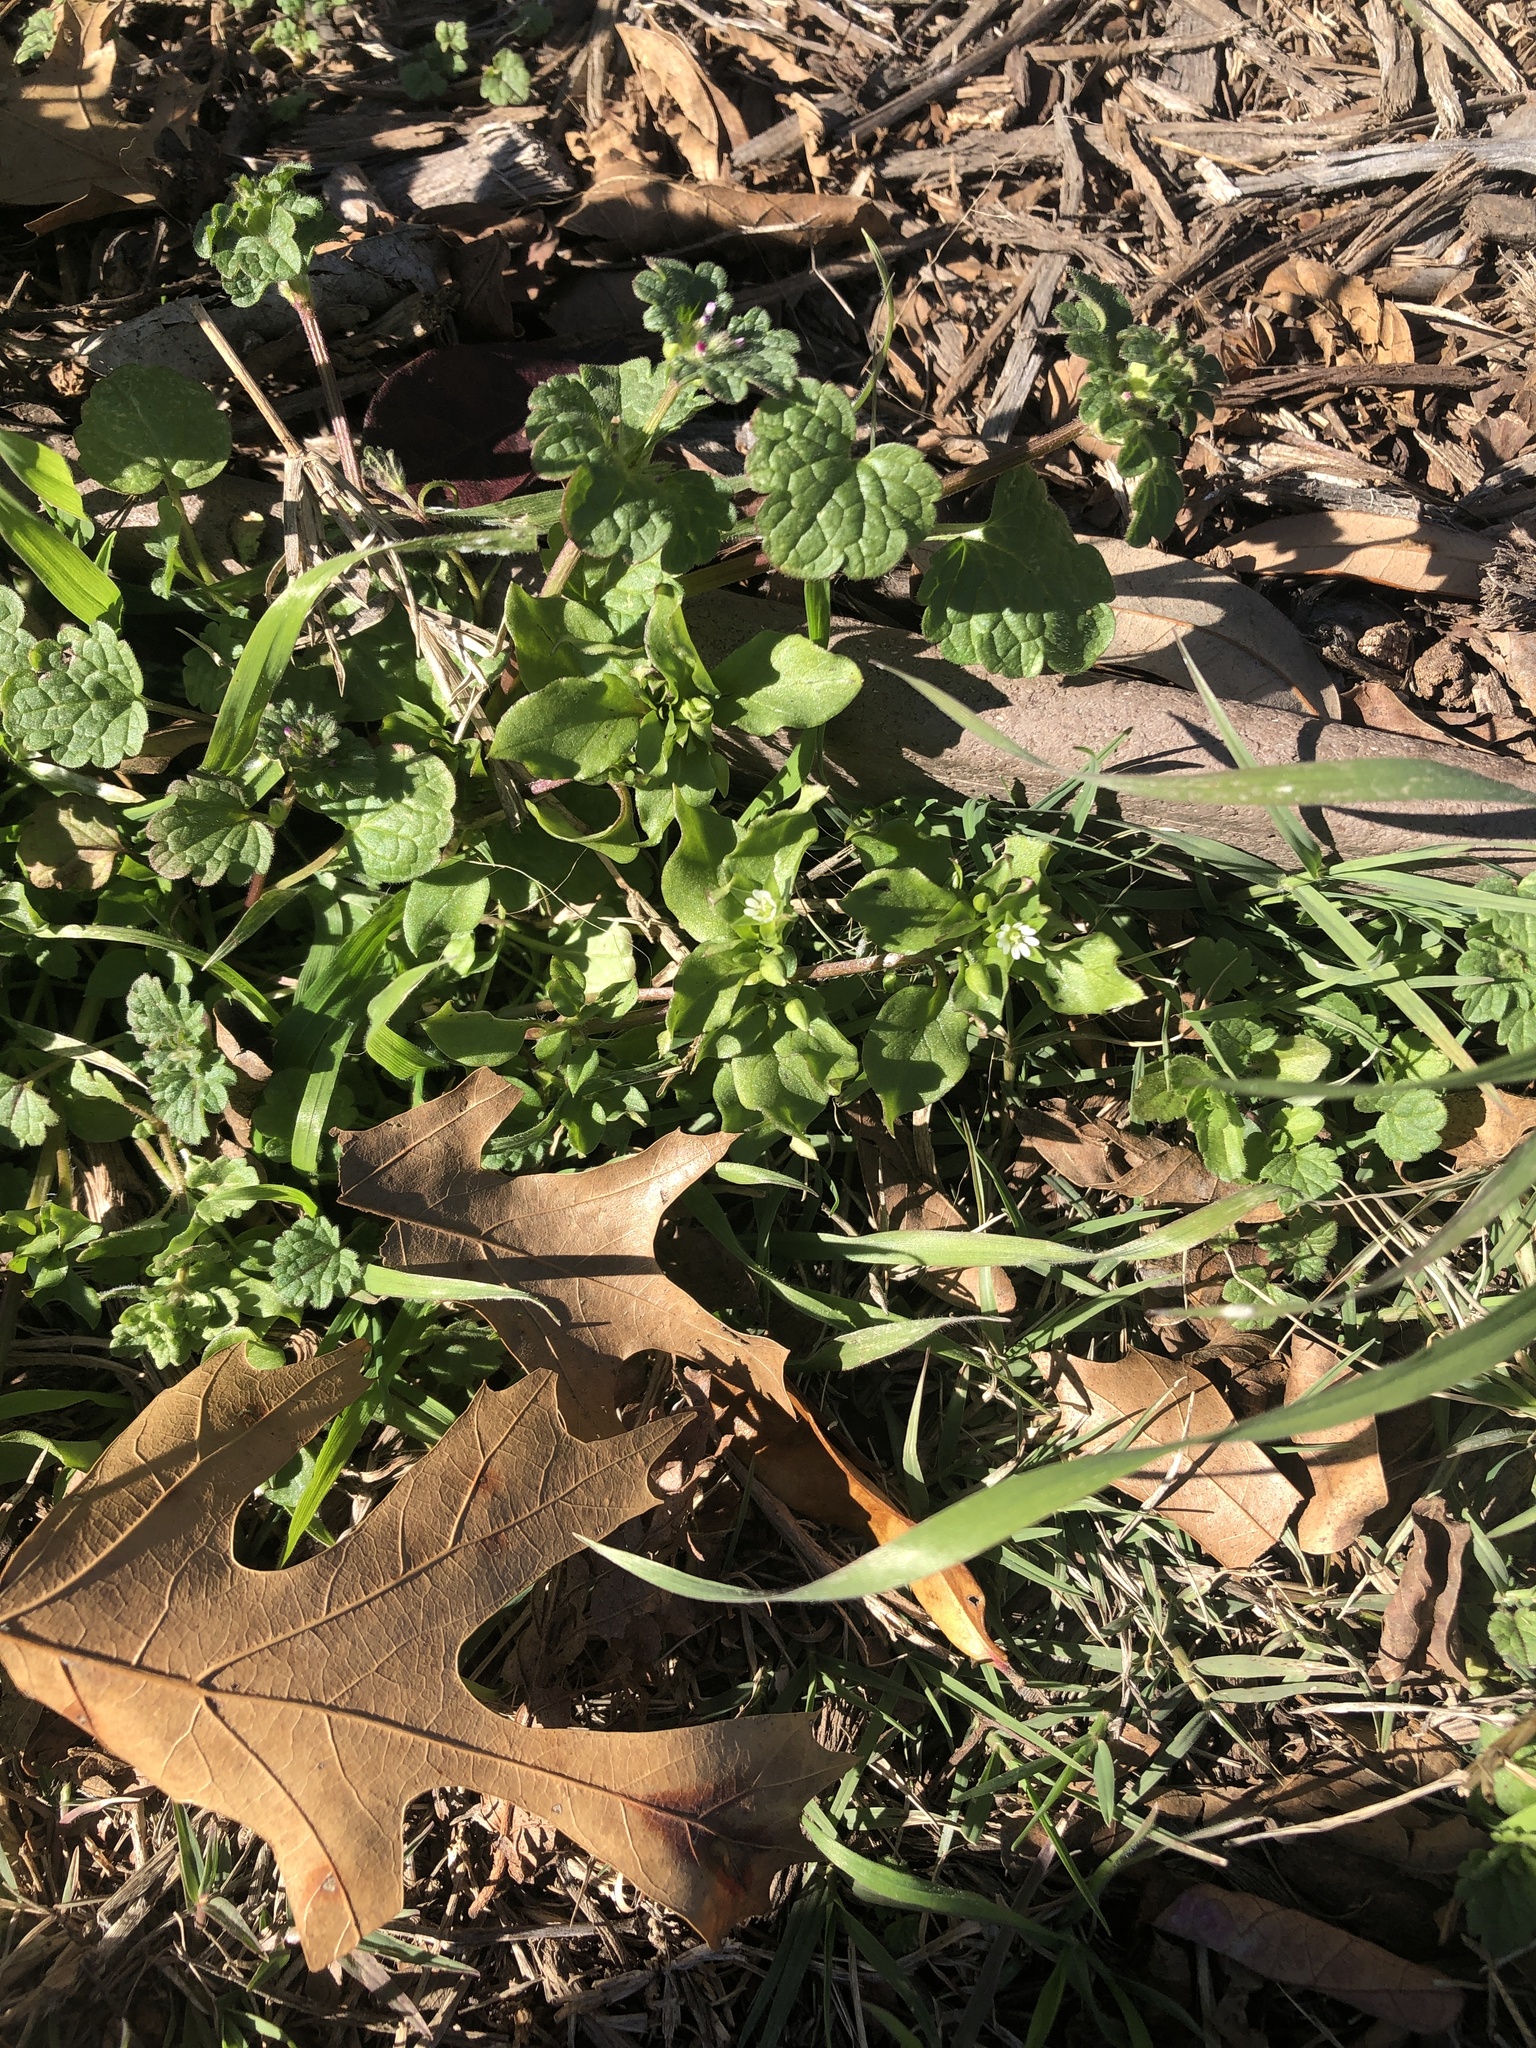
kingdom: Plantae
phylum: Tracheophyta
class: Magnoliopsida
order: Caryophyllales
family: Caryophyllaceae
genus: Stellaria
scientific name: Stellaria media
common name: Common chickweed
